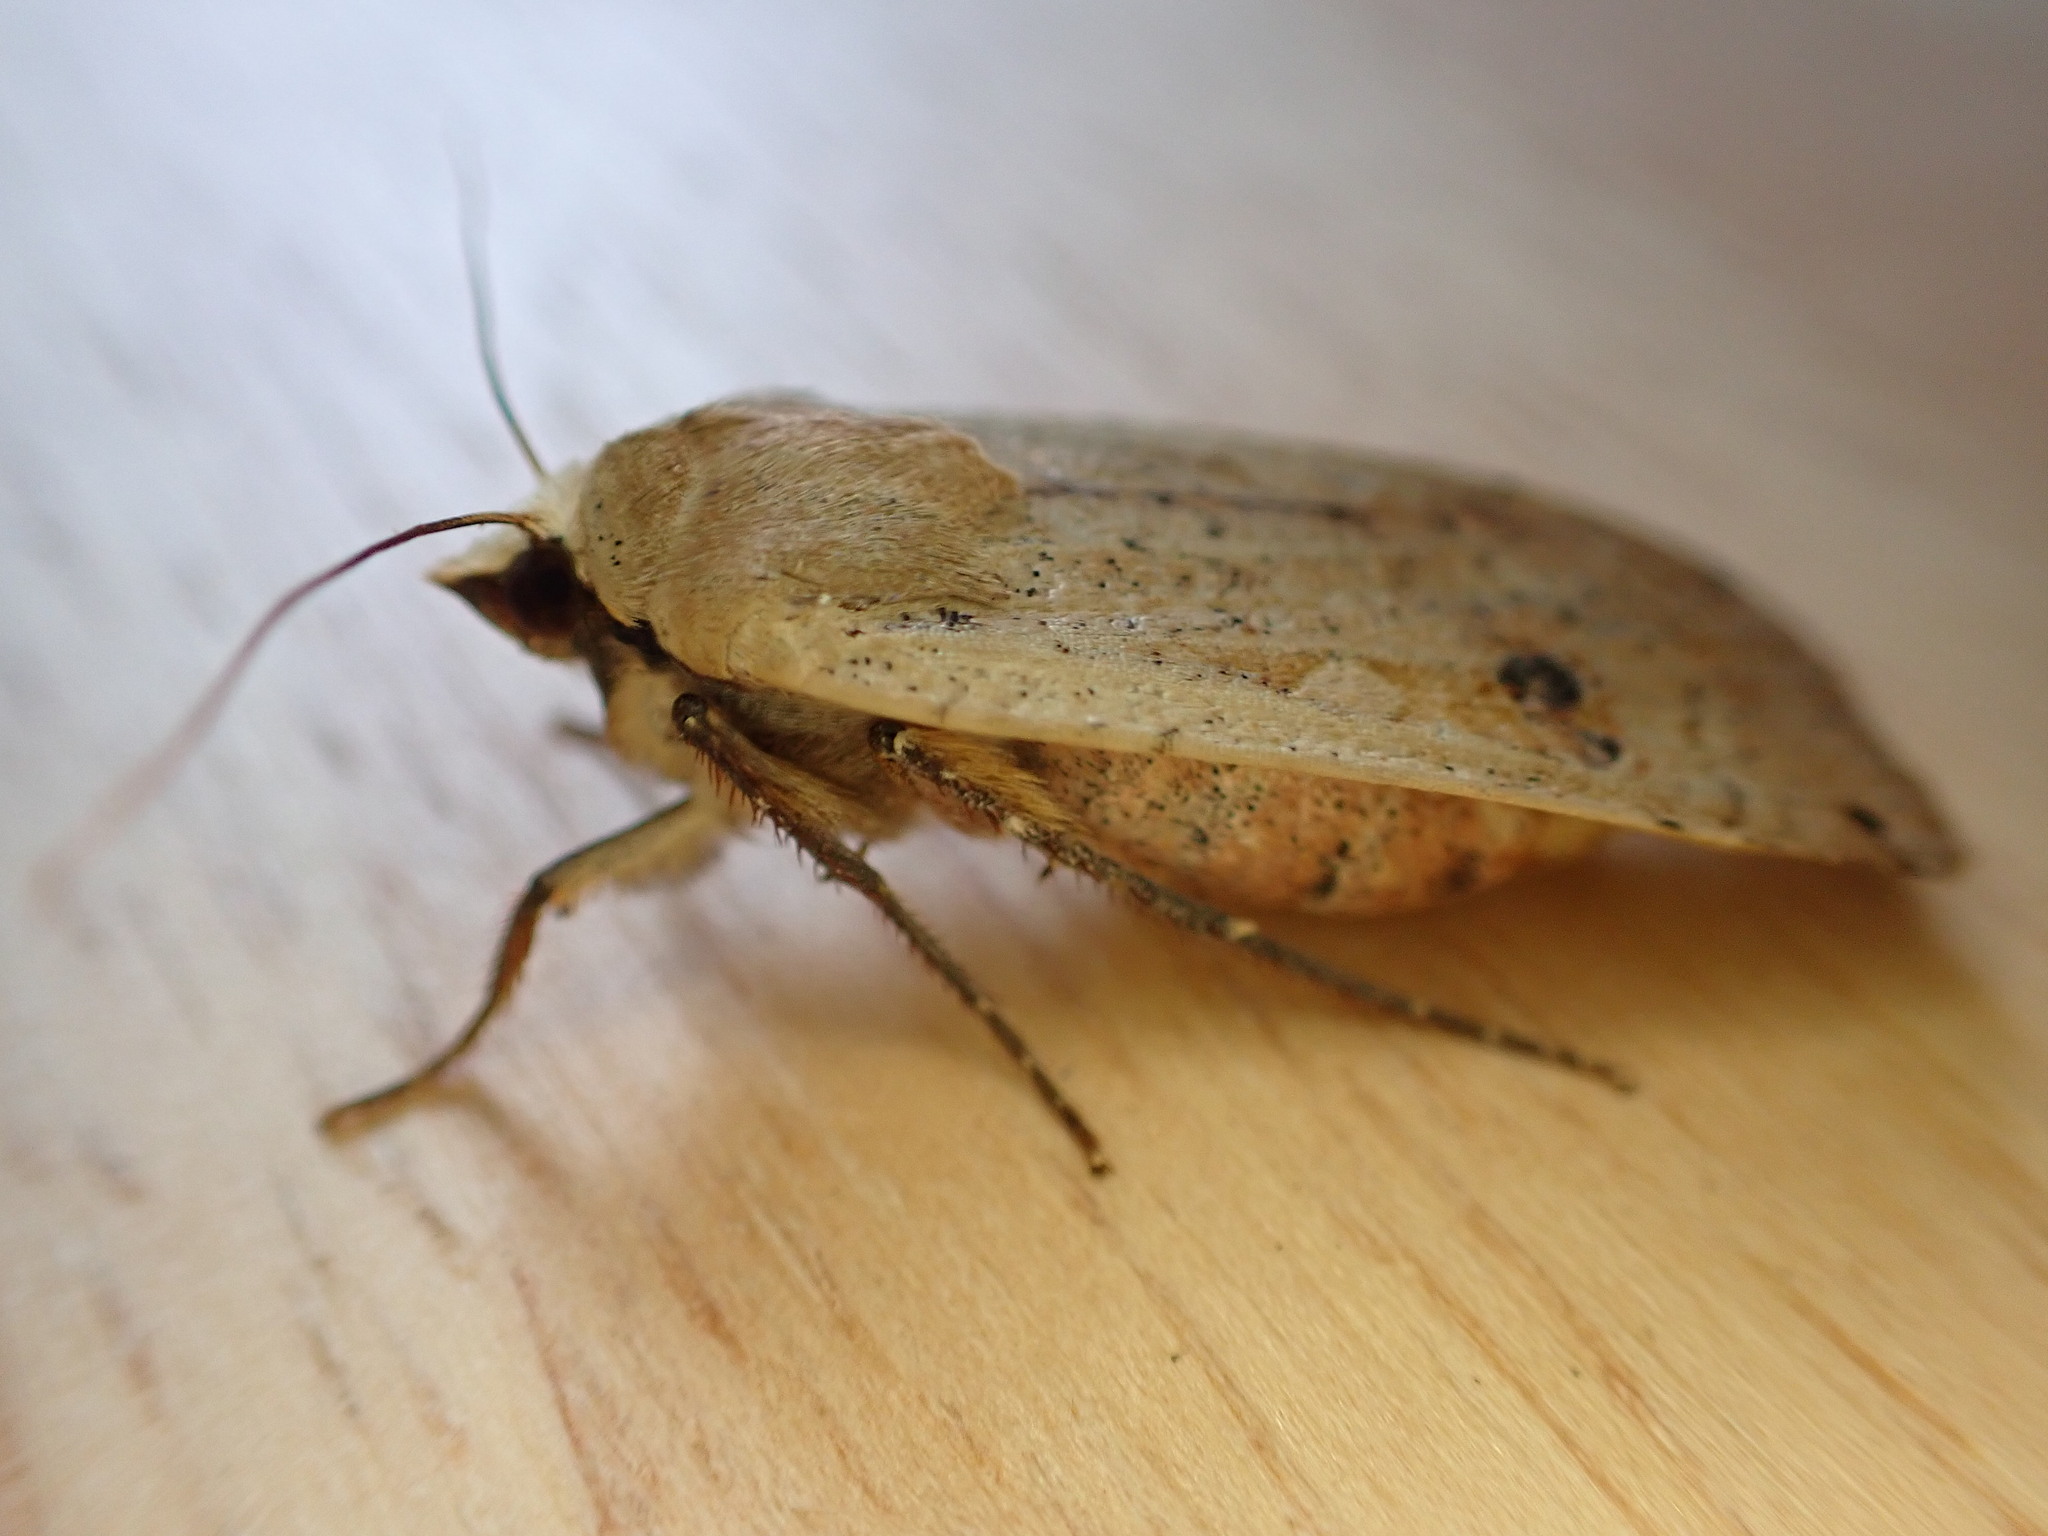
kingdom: Animalia
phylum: Arthropoda
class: Insecta
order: Lepidoptera
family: Noctuidae
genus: Noctua
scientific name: Noctua pronuba
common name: Large yellow underwing
